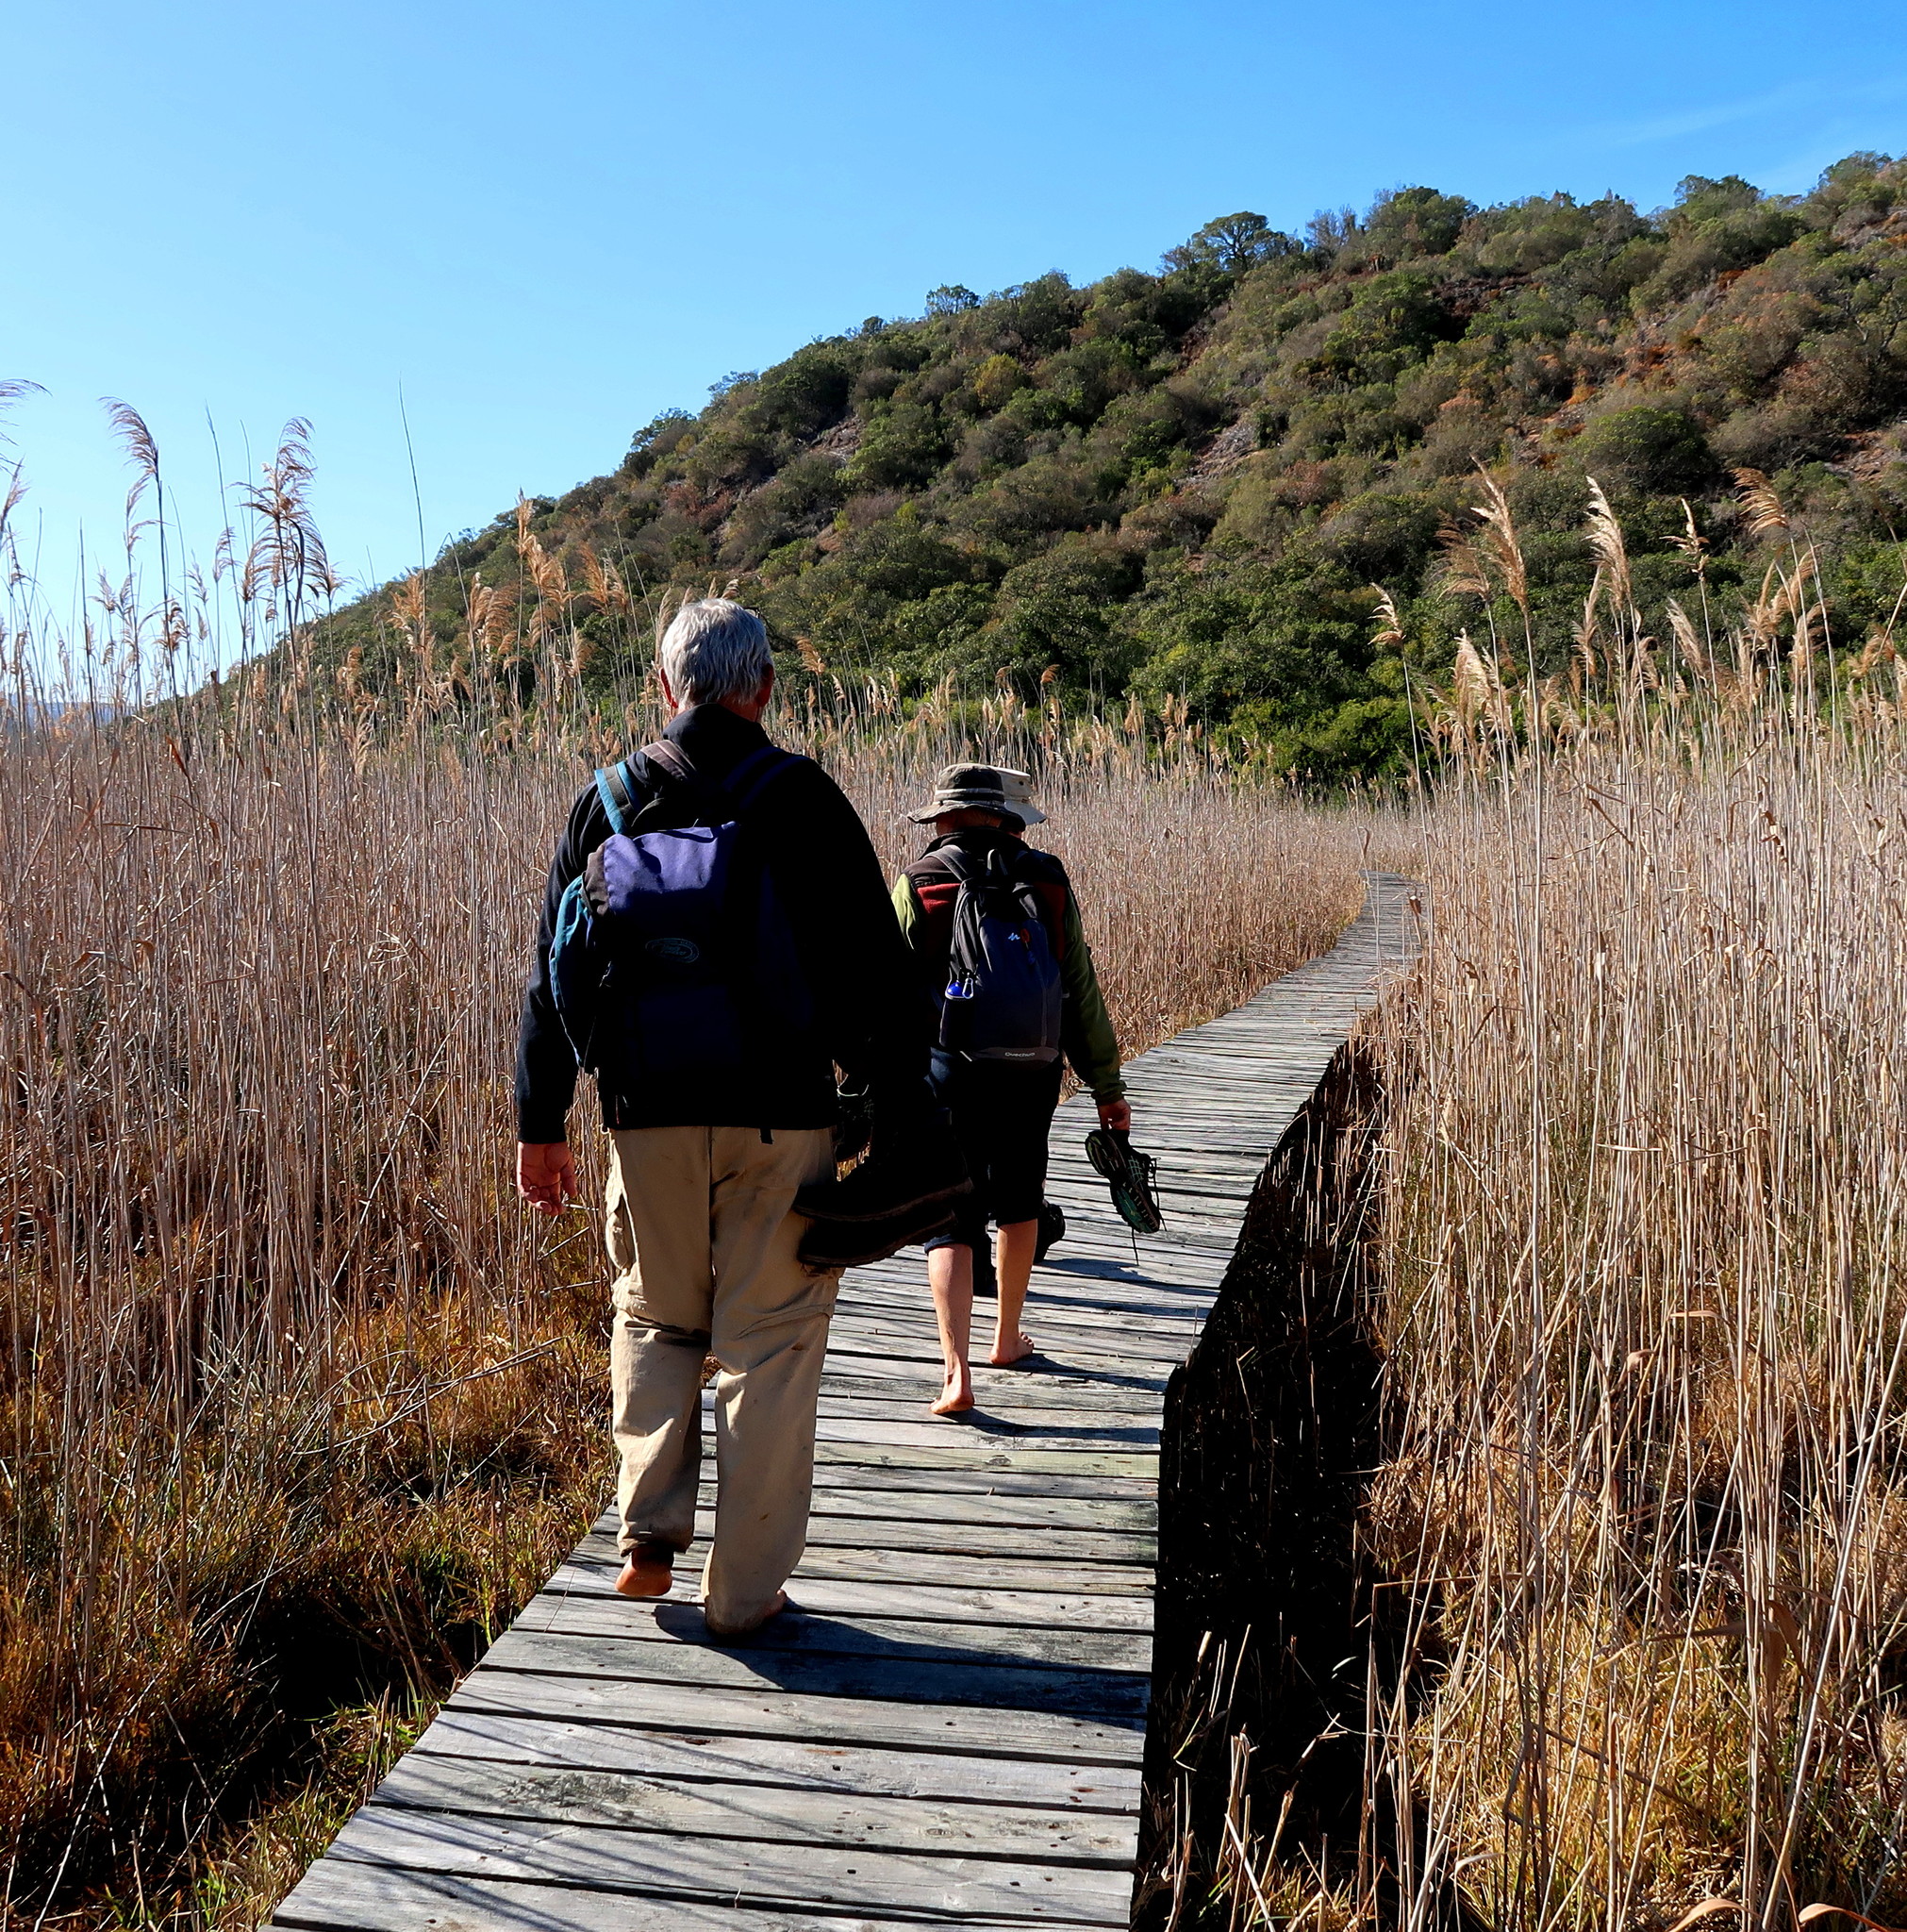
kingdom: Plantae
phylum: Tracheophyta
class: Liliopsida
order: Poales
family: Poaceae
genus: Phragmites
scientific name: Phragmites australis
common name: Common reed
